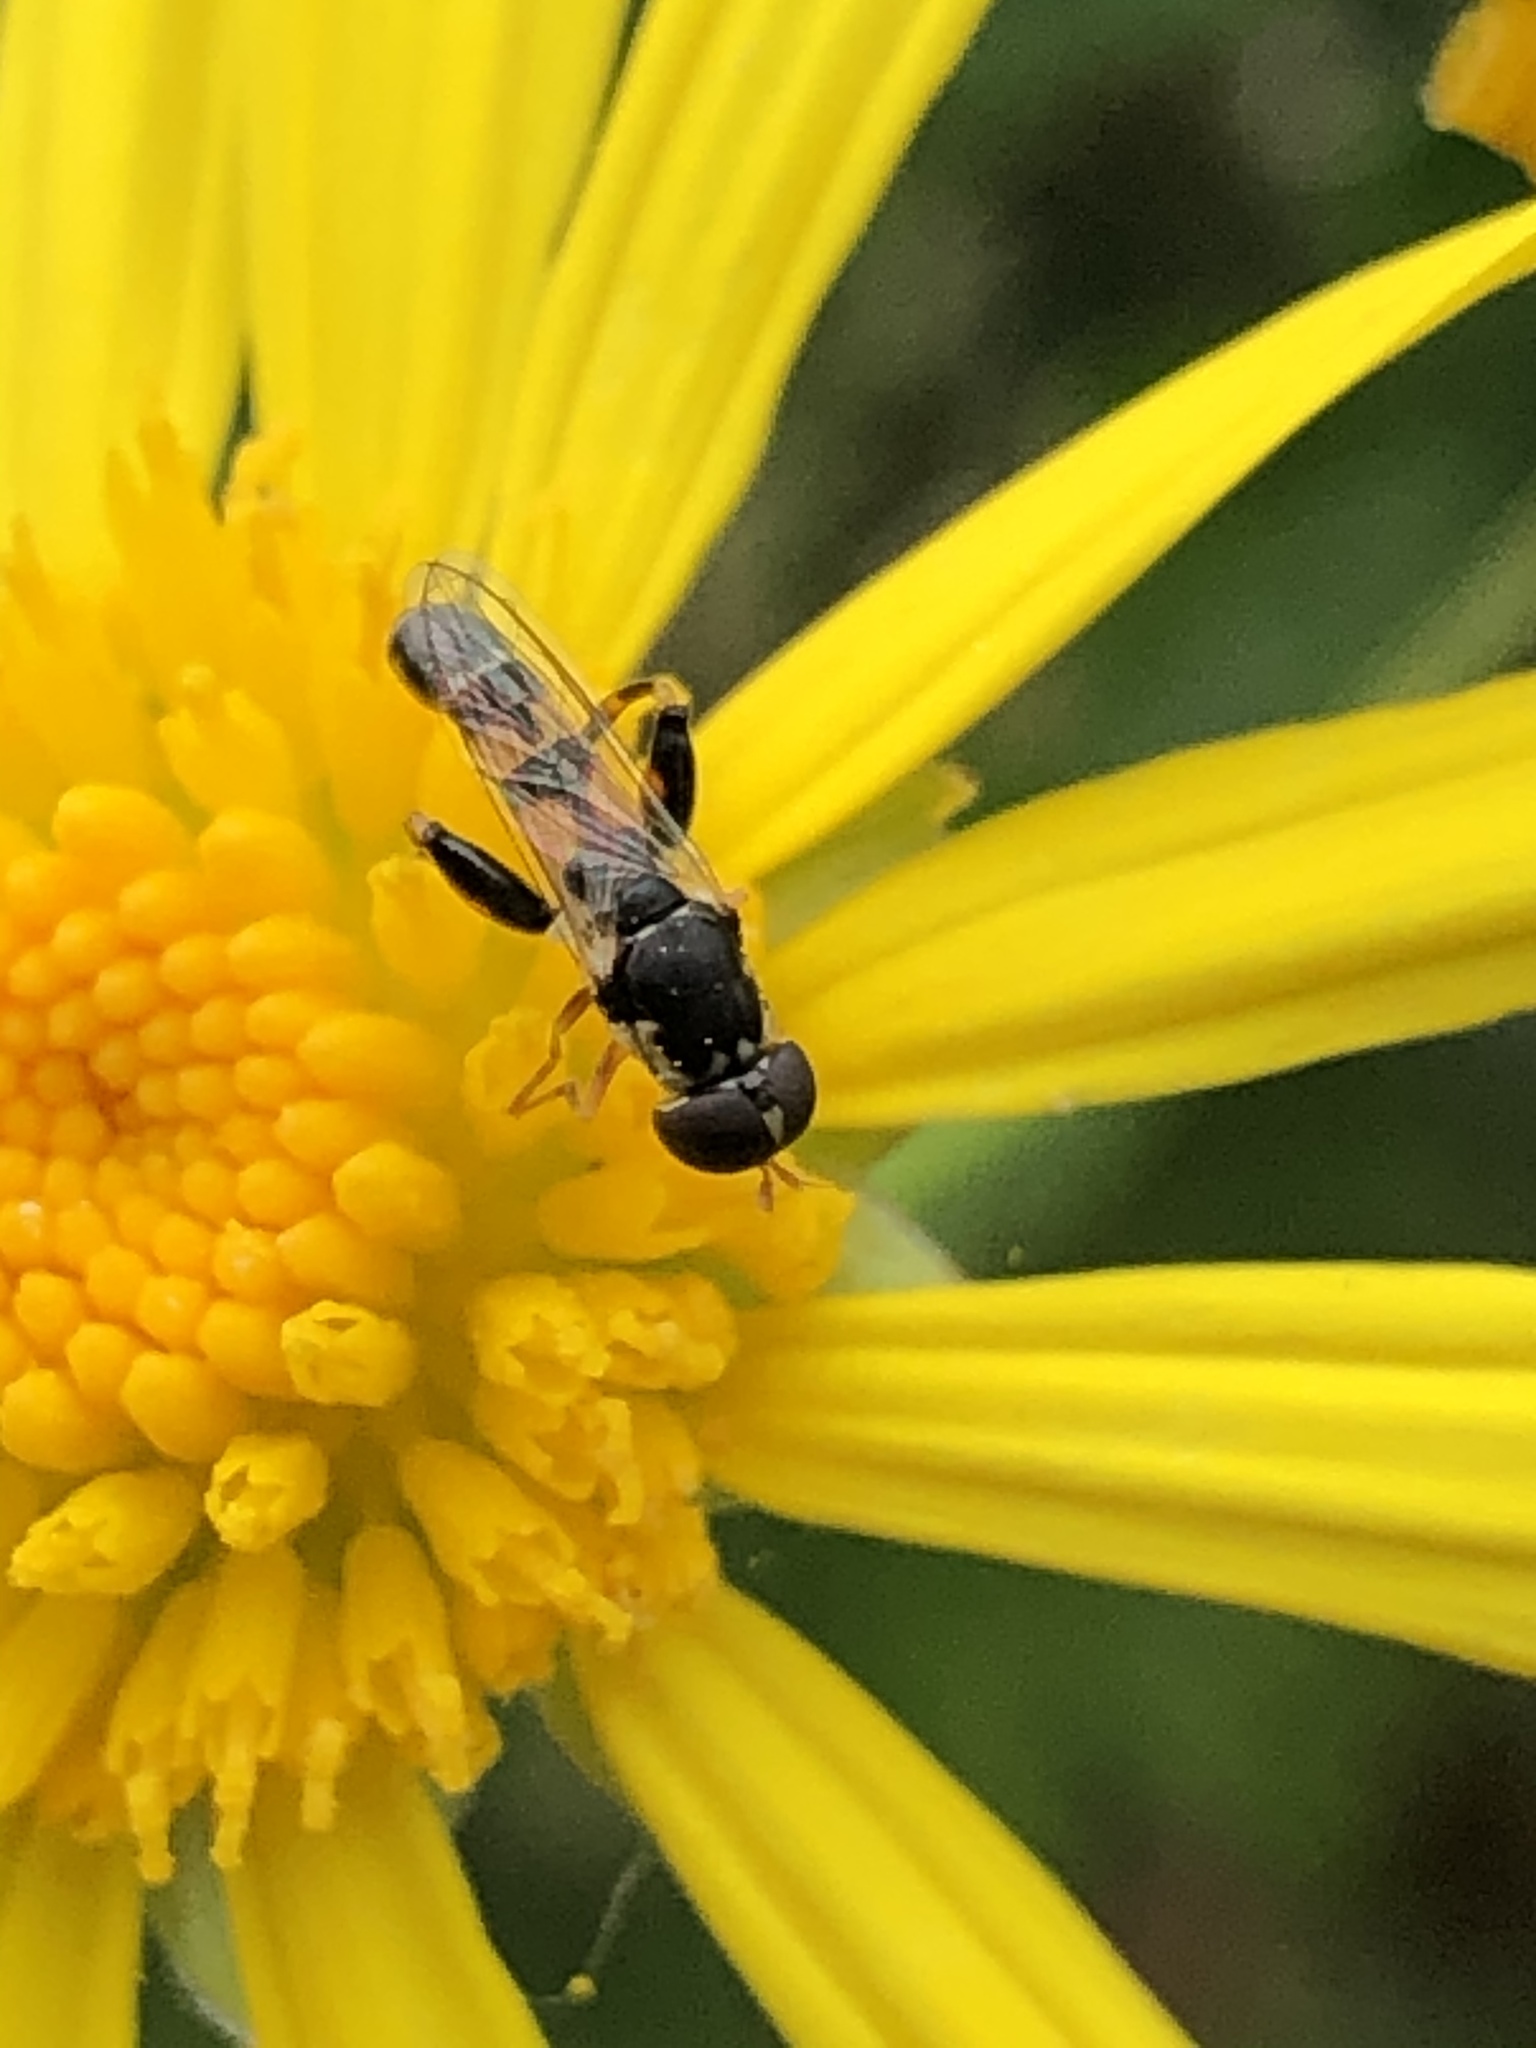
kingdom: Animalia
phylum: Arthropoda
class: Insecta
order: Diptera
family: Syrphidae
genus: Syritta
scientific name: Syritta pipiens
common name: Hover fly
